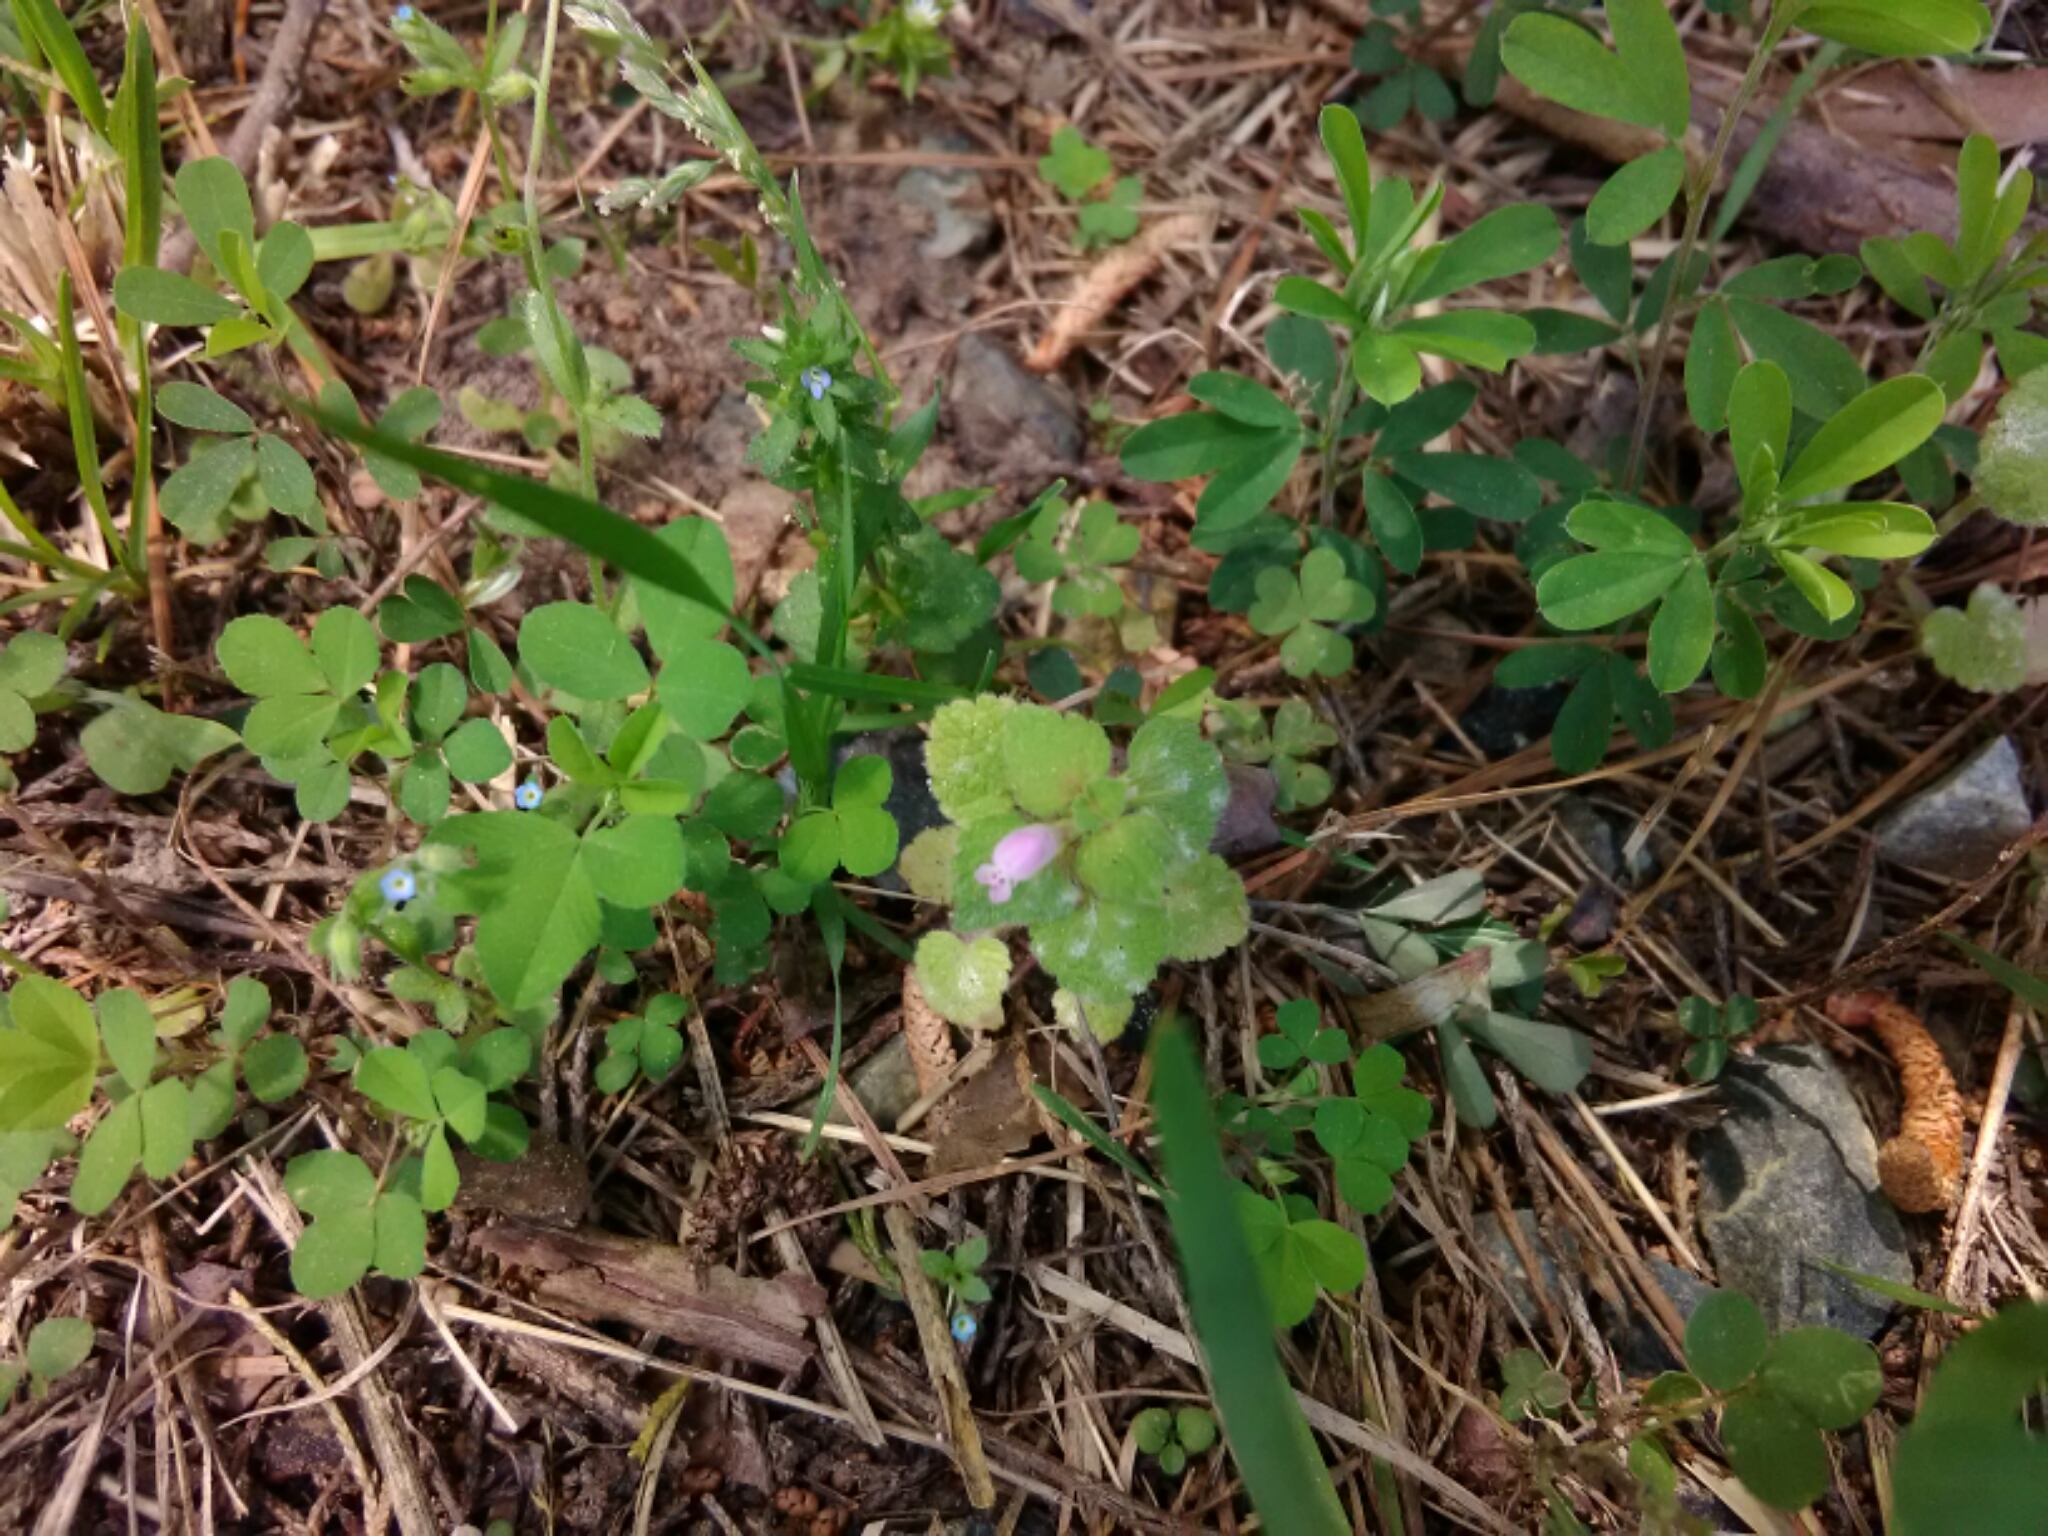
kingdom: Plantae
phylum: Tracheophyta
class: Magnoliopsida
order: Lamiales
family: Lamiaceae
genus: Lamium
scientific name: Lamium purpureum
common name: Red dead-nettle
